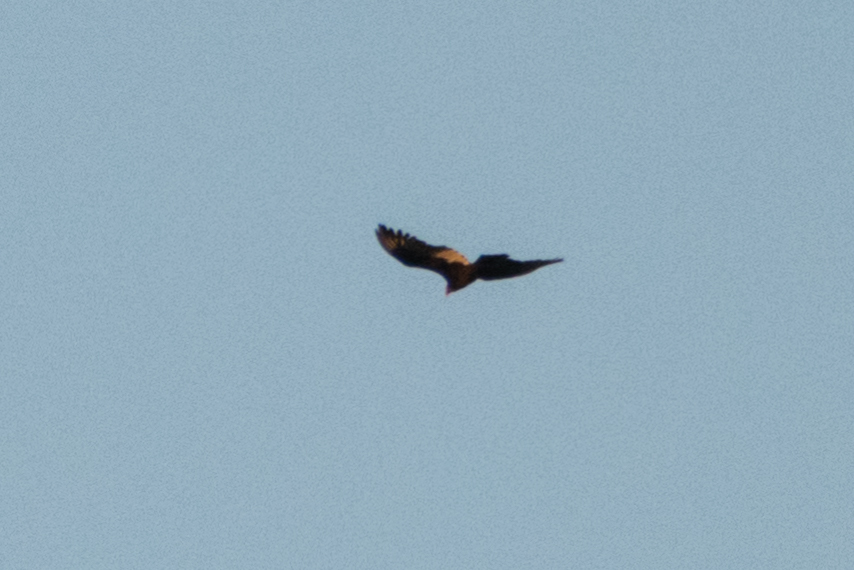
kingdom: Animalia
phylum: Chordata
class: Aves
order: Accipitriformes
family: Cathartidae
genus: Cathartes
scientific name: Cathartes aura
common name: Turkey vulture
